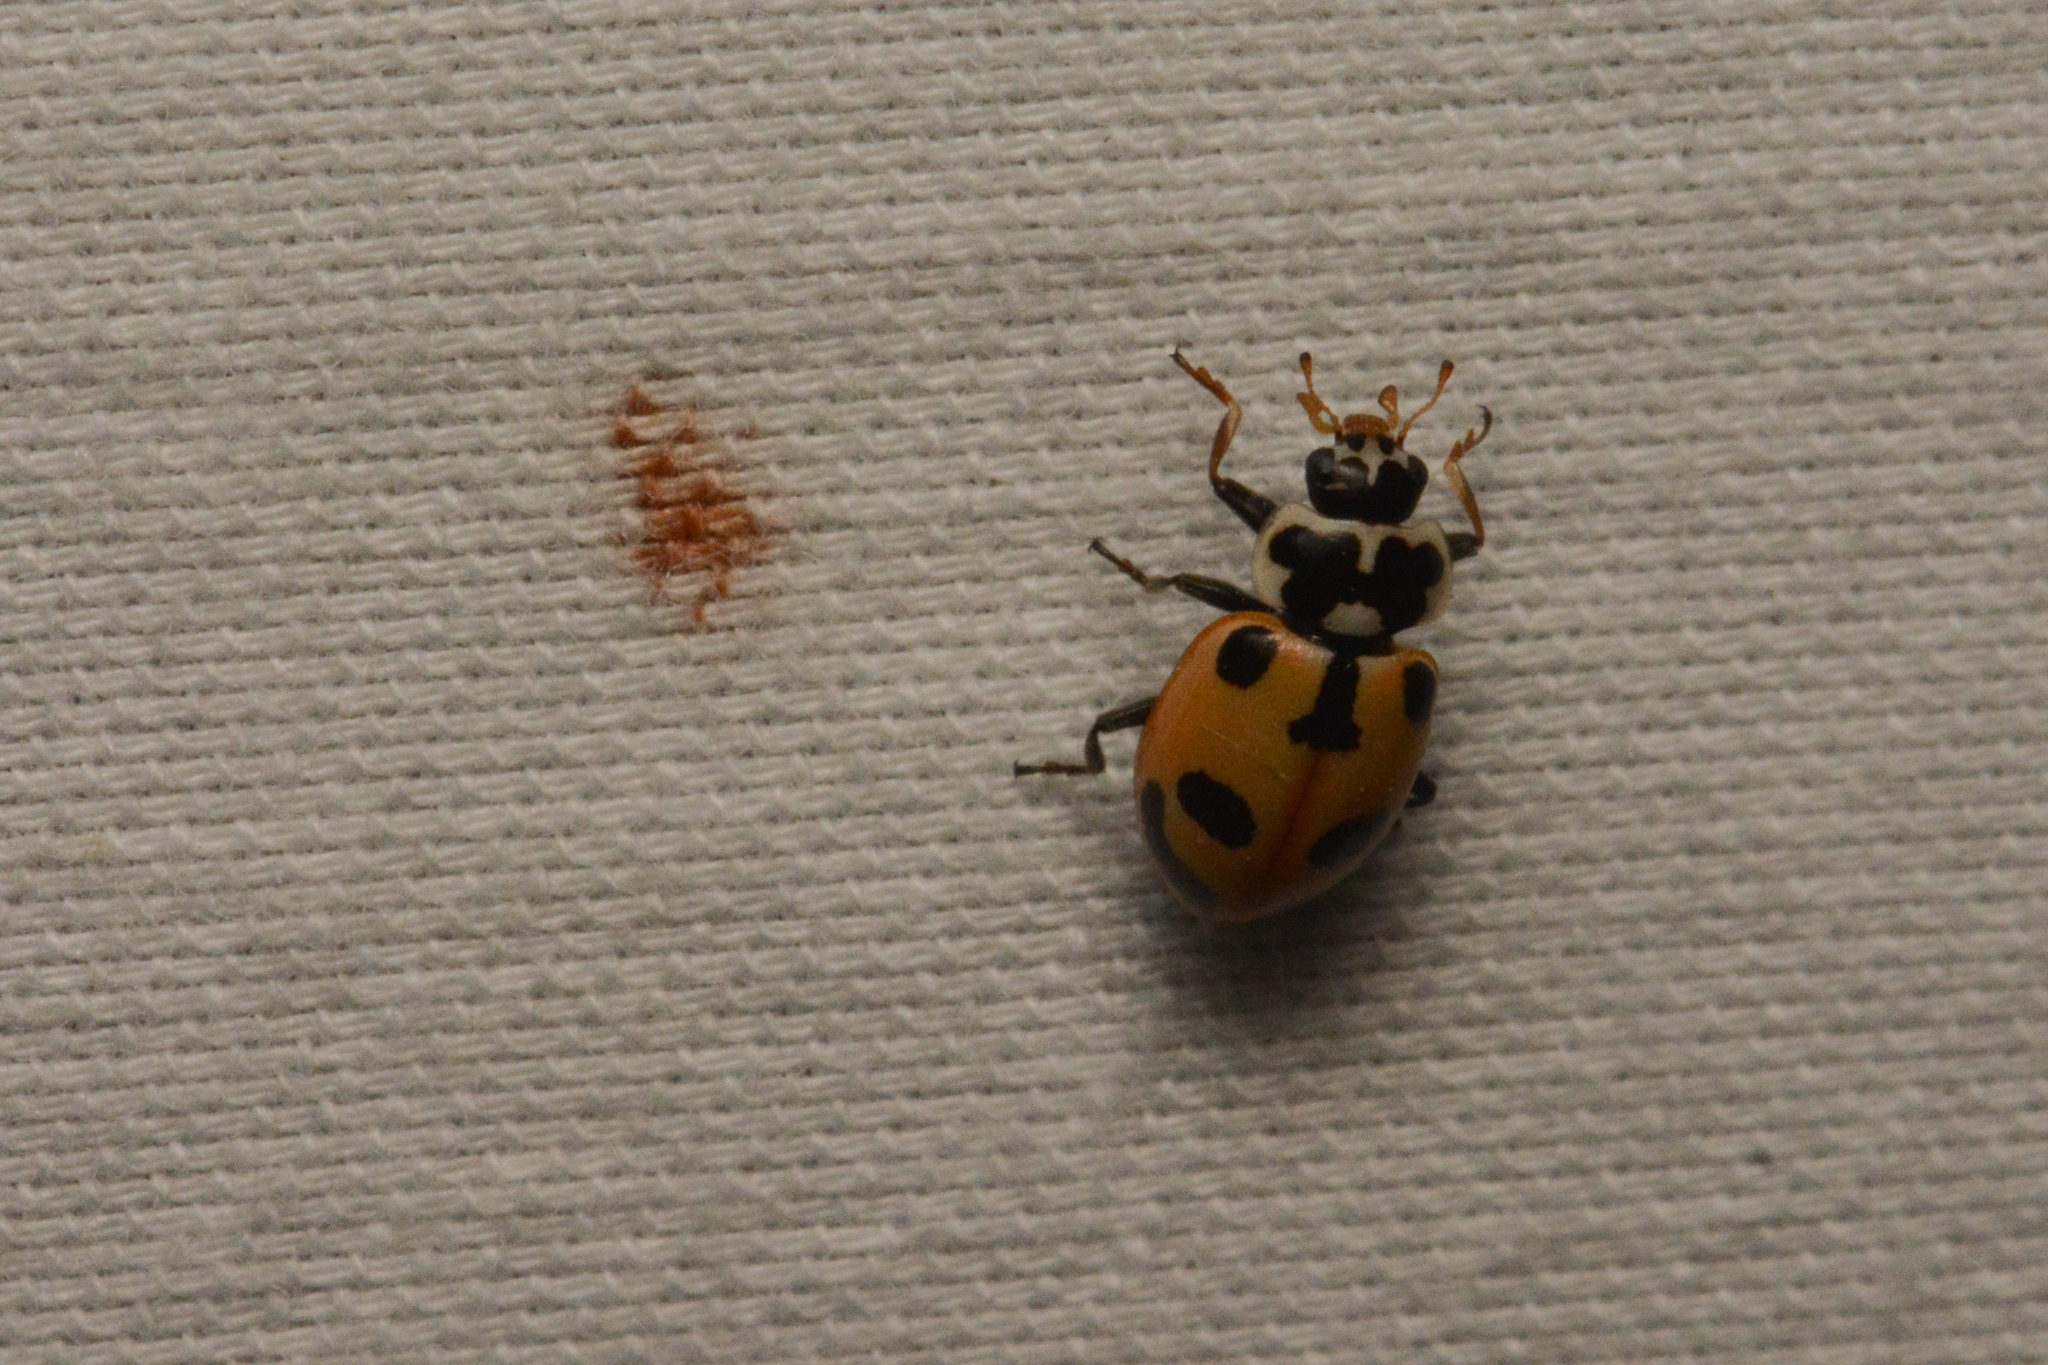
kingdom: Animalia
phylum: Arthropoda
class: Insecta
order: Coleoptera
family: Coccinellidae
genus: Hippodamia
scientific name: Hippodamia parenthesis
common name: Parenthesis lady beetle
